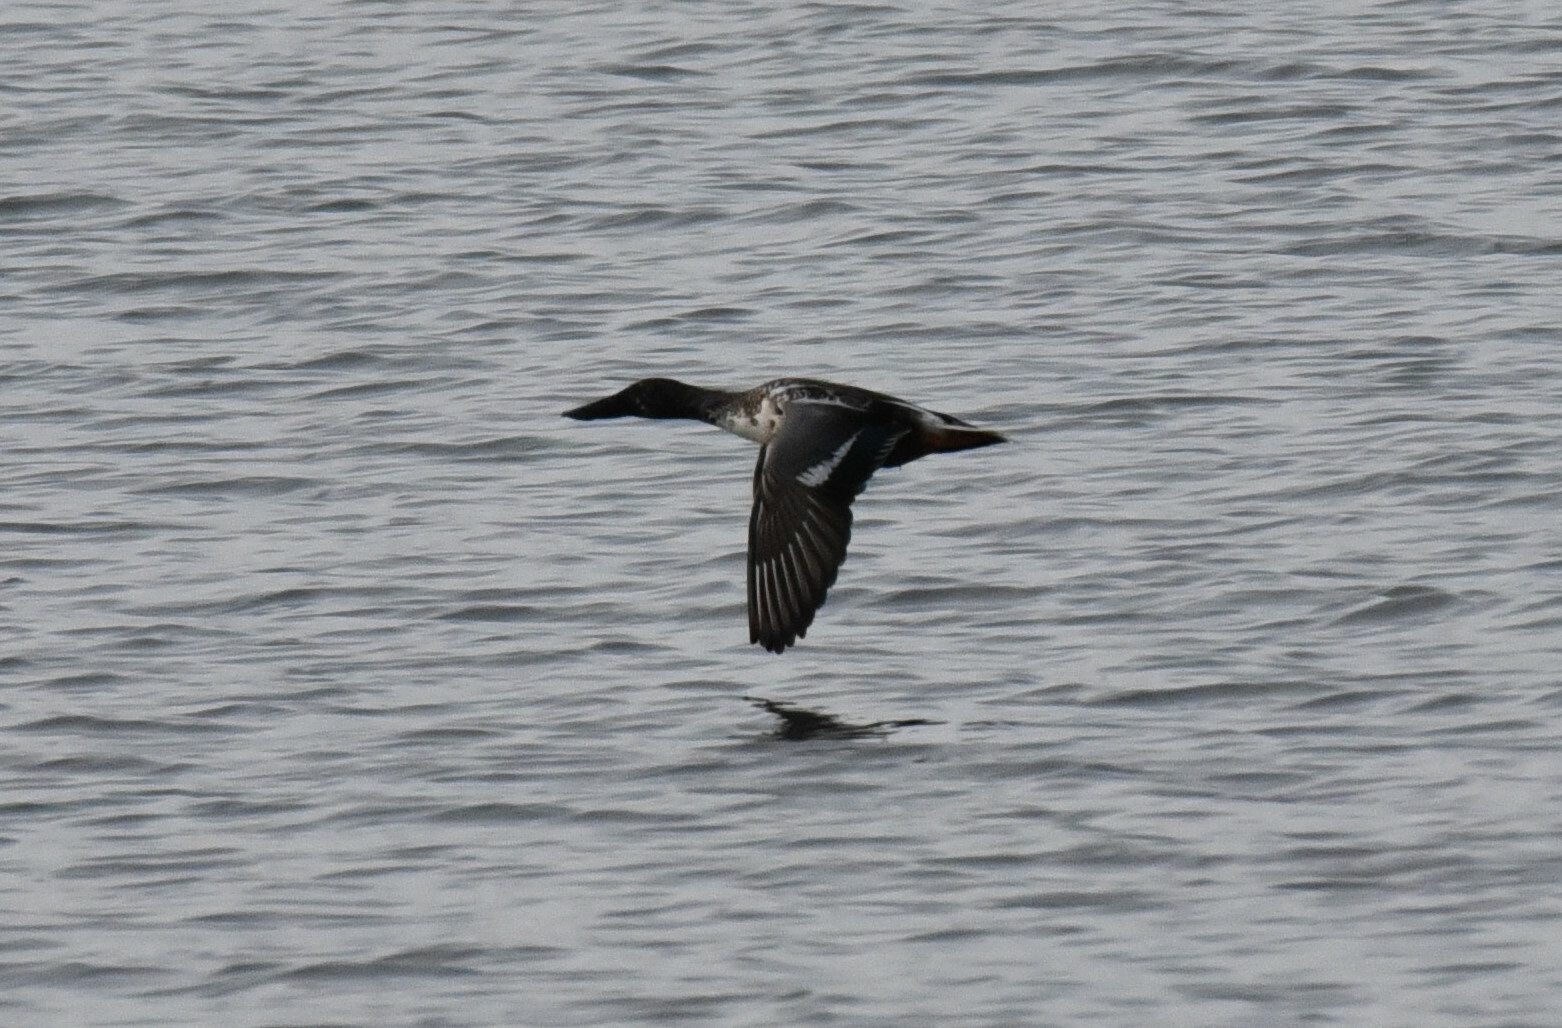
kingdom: Animalia
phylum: Chordata
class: Aves
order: Anseriformes
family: Anatidae
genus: Spatula
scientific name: Spatula clypeata
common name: Northern shoveler
